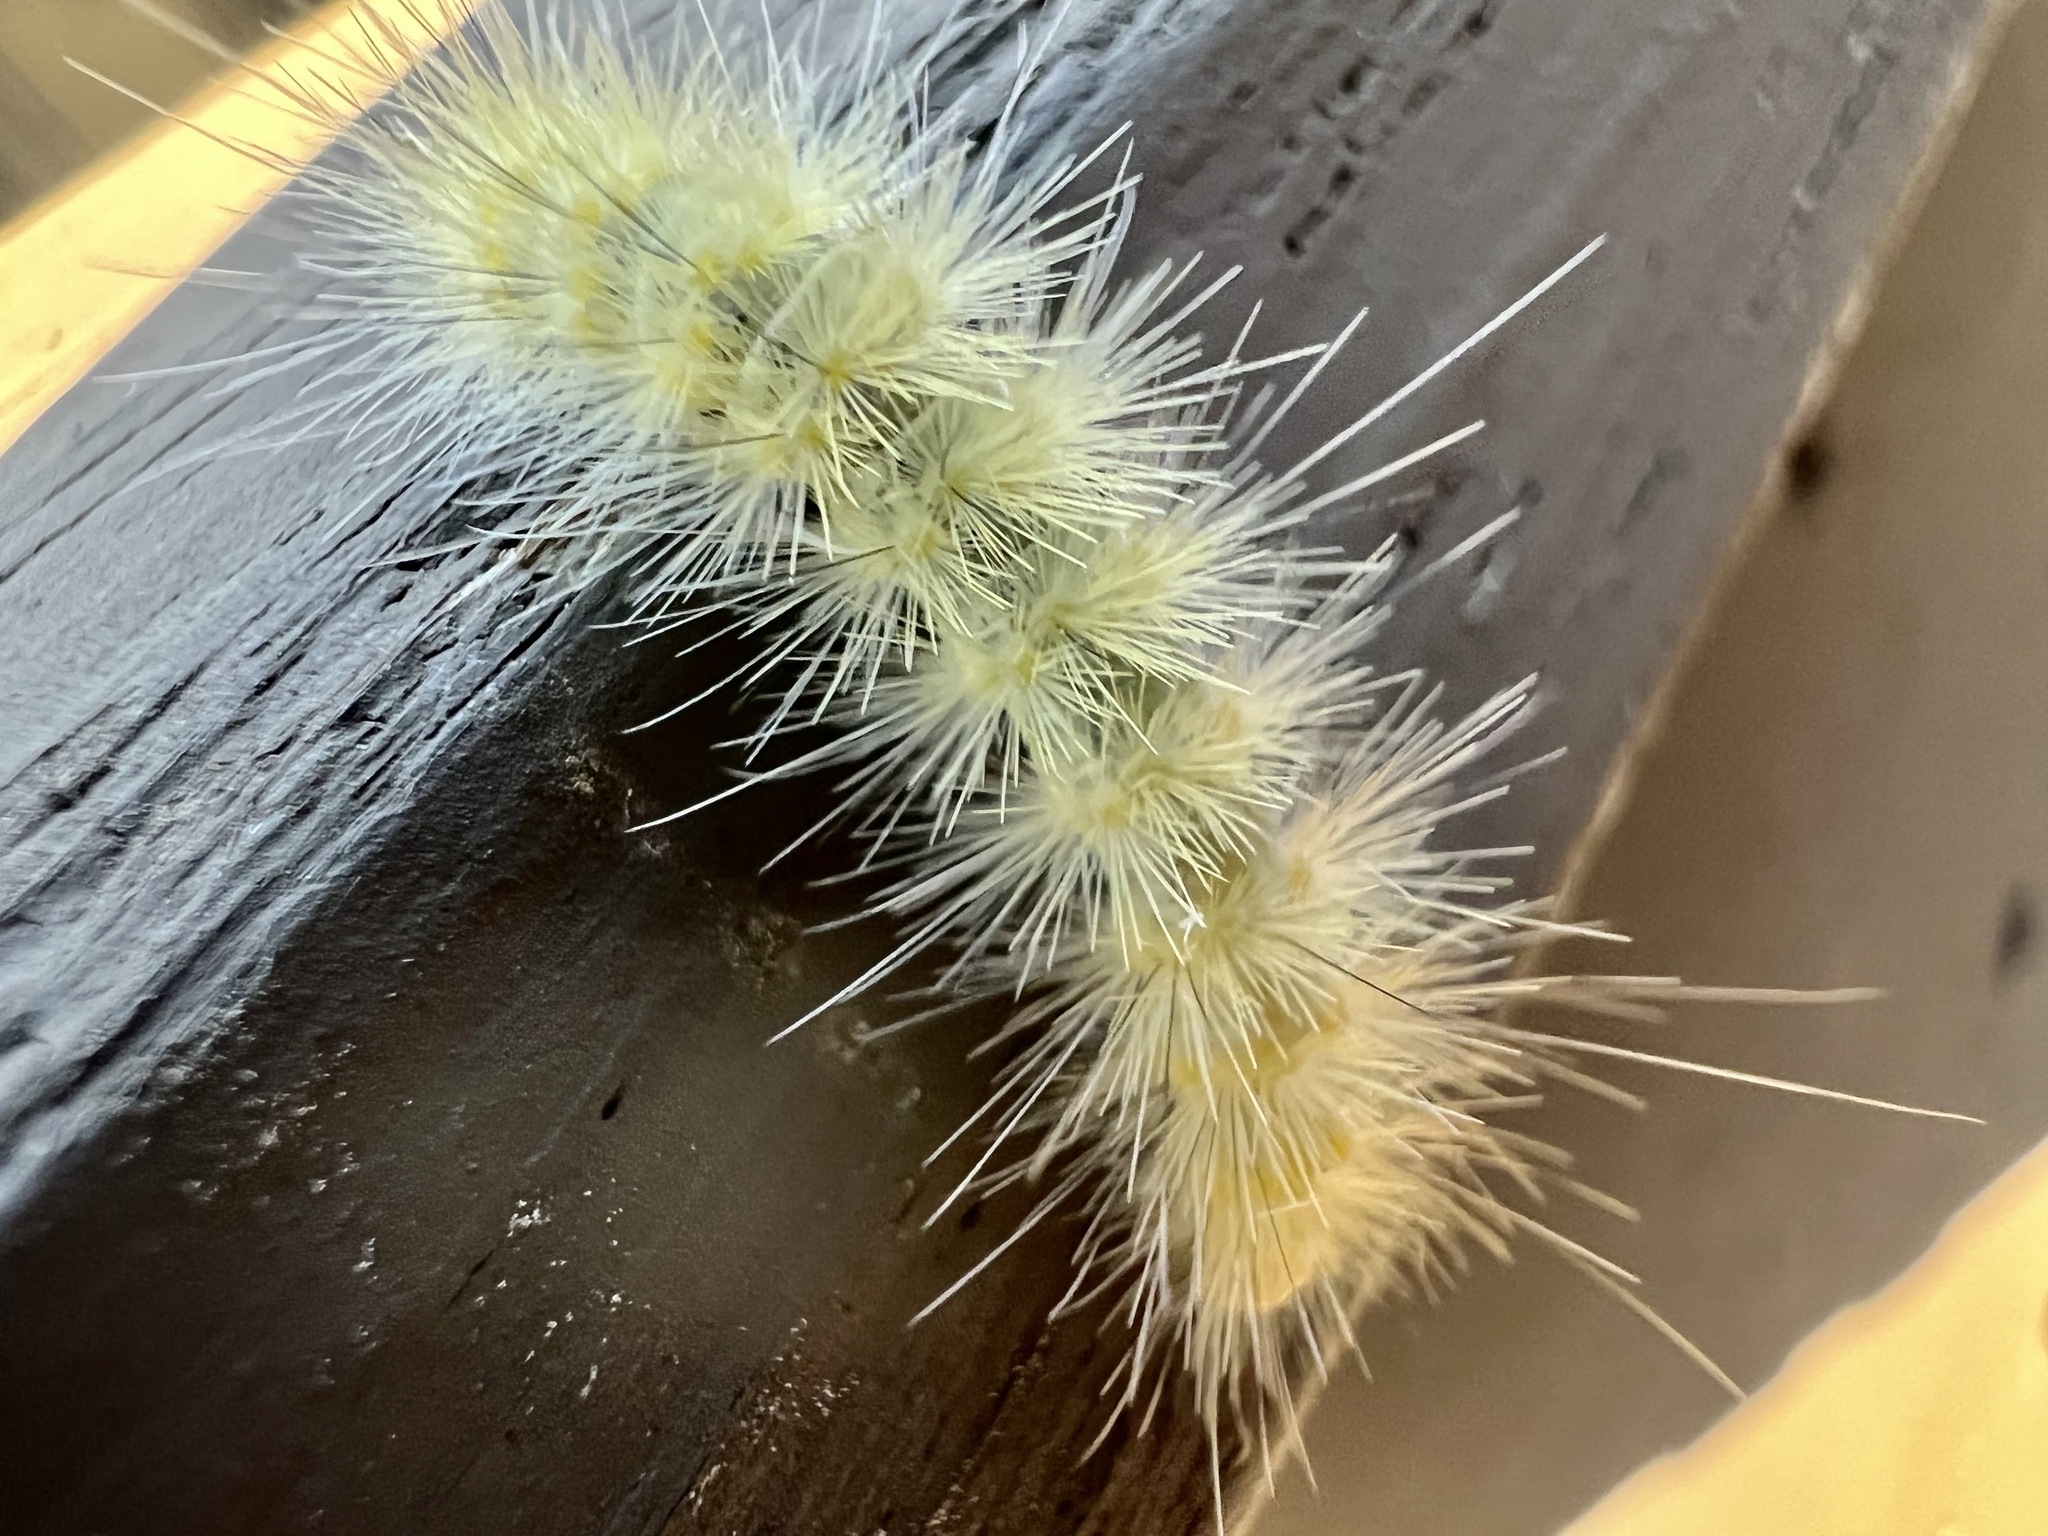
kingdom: Animalia
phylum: Arthropoda
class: Insecta
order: Lepidoptera
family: Erebidae
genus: Spilosoma
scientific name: Spilosoma virginica
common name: Virginia tiger moth
